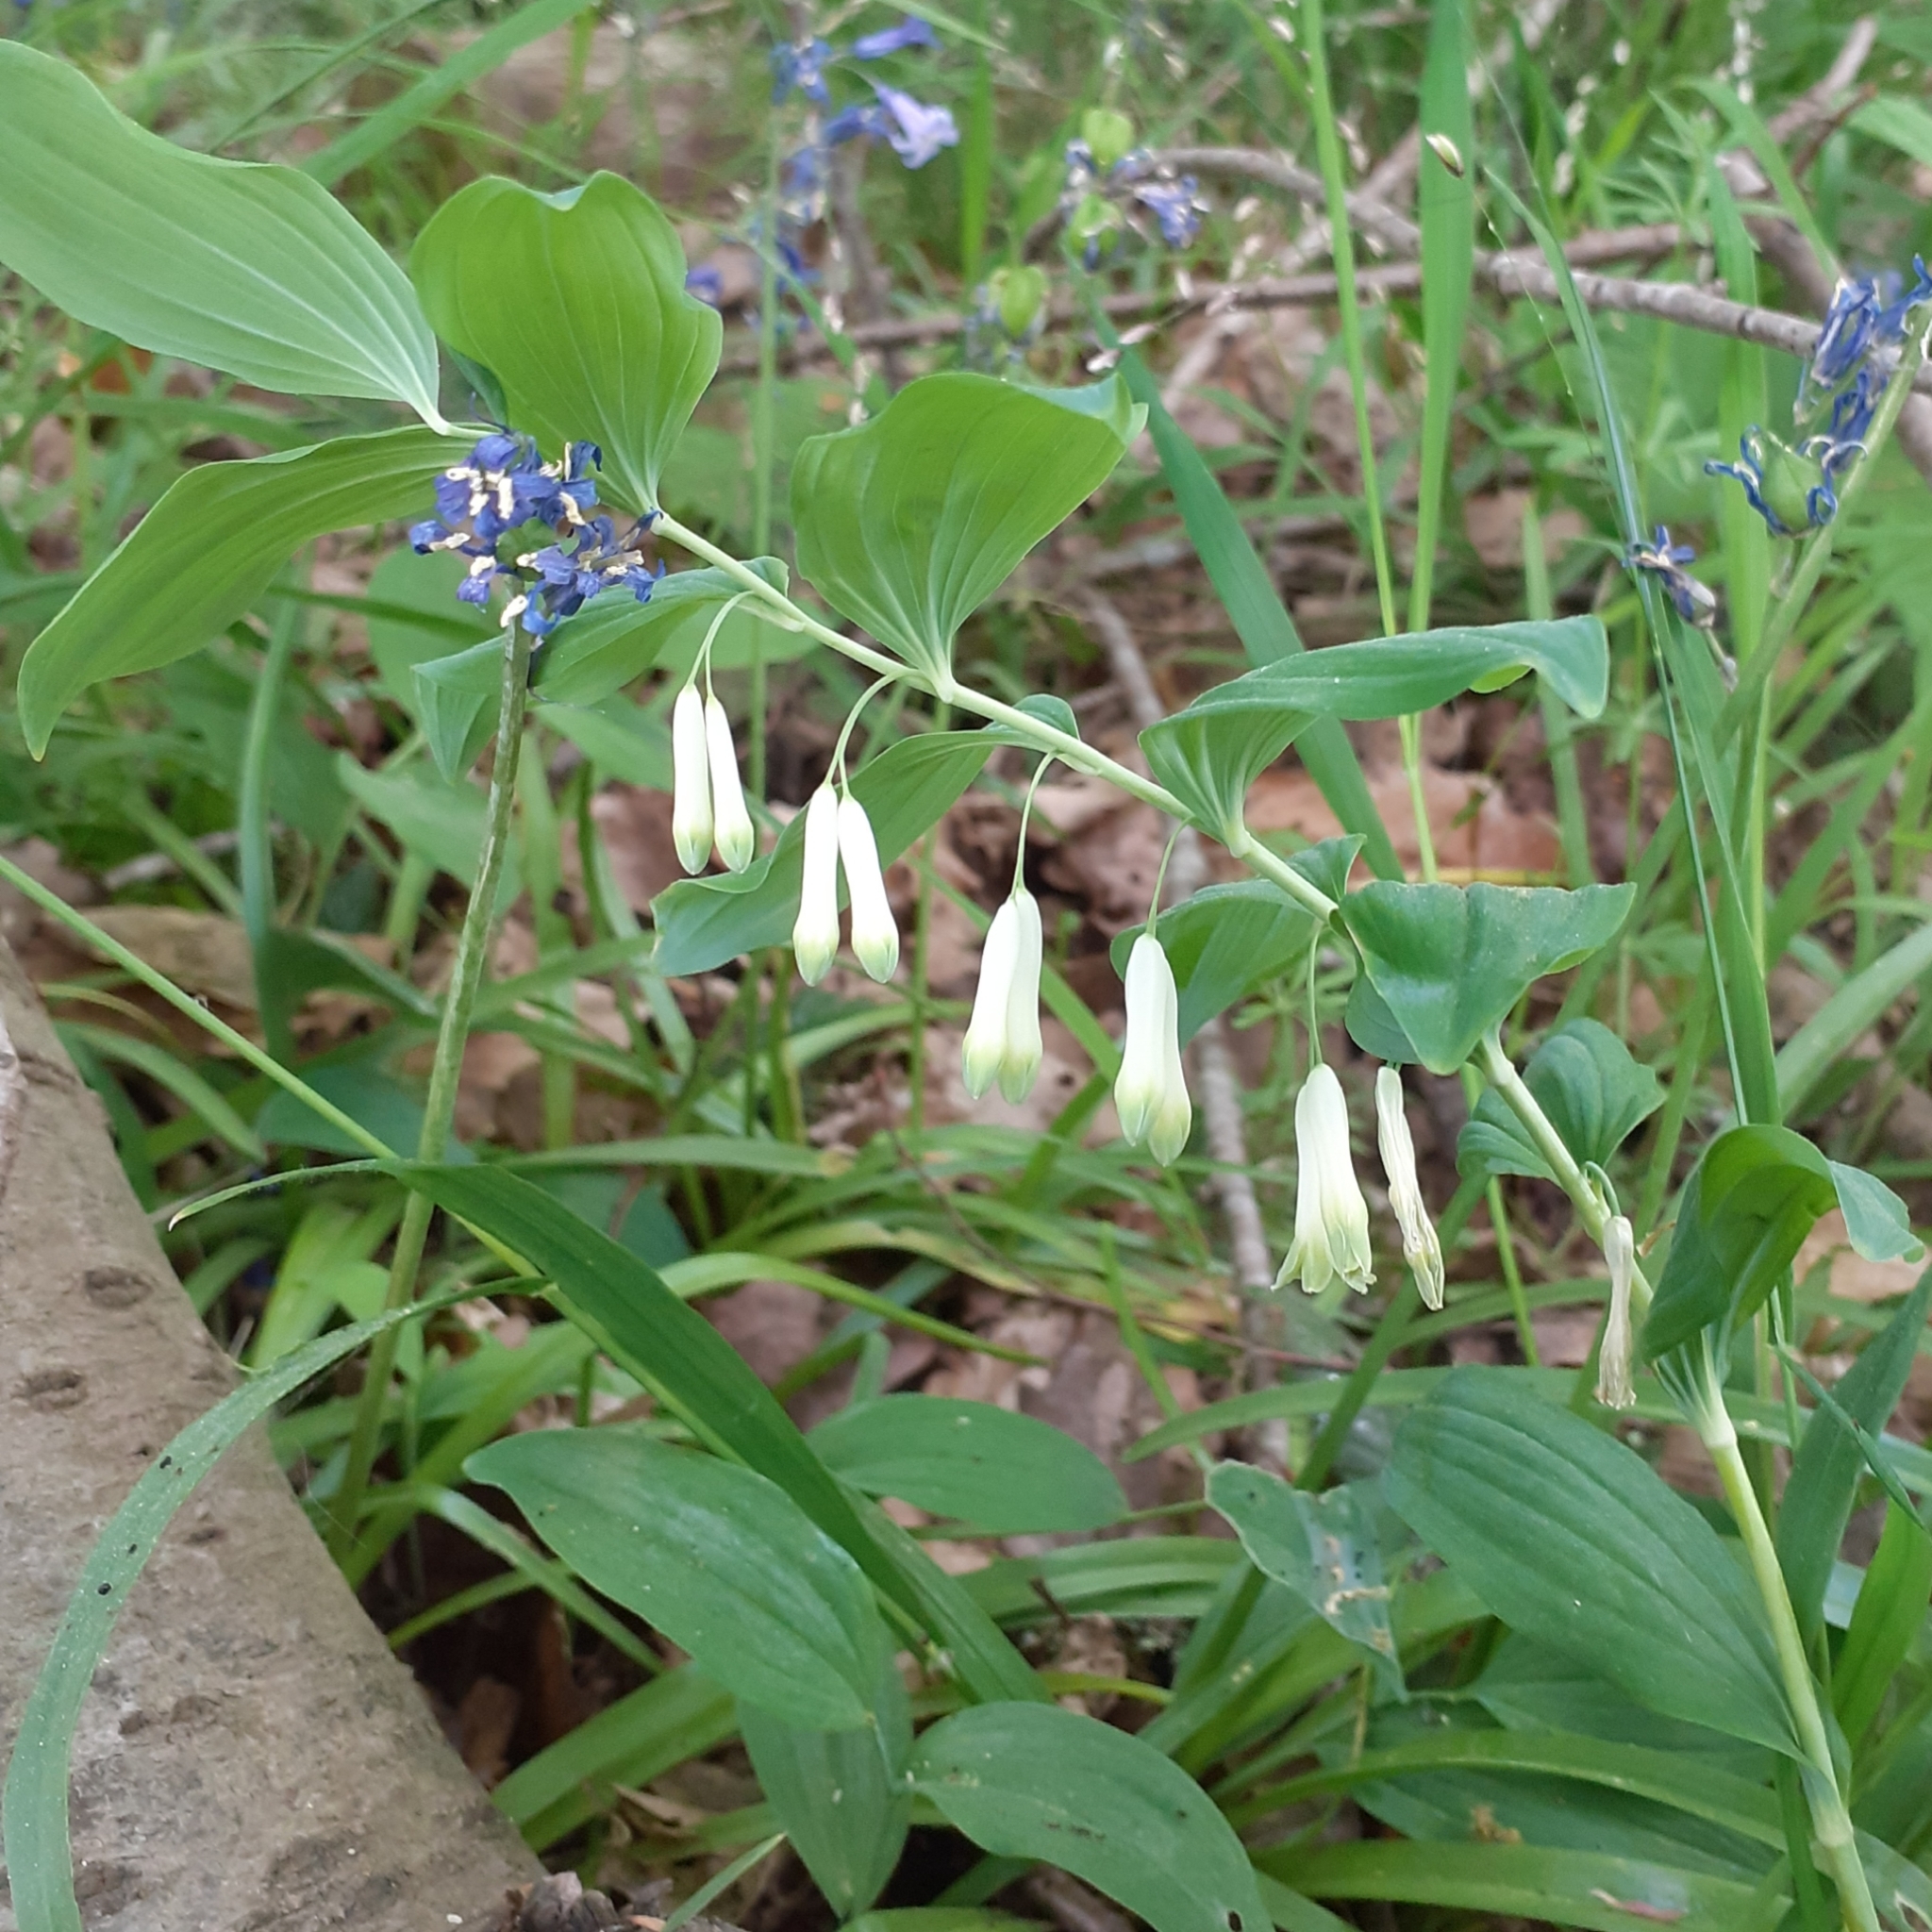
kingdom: Plantae
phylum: Tracheophyta
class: Liliopsida
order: Asparagales
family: Asparagaceae
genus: Polygonatum
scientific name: Polygonatum multiflorum
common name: Solomon's-seal
